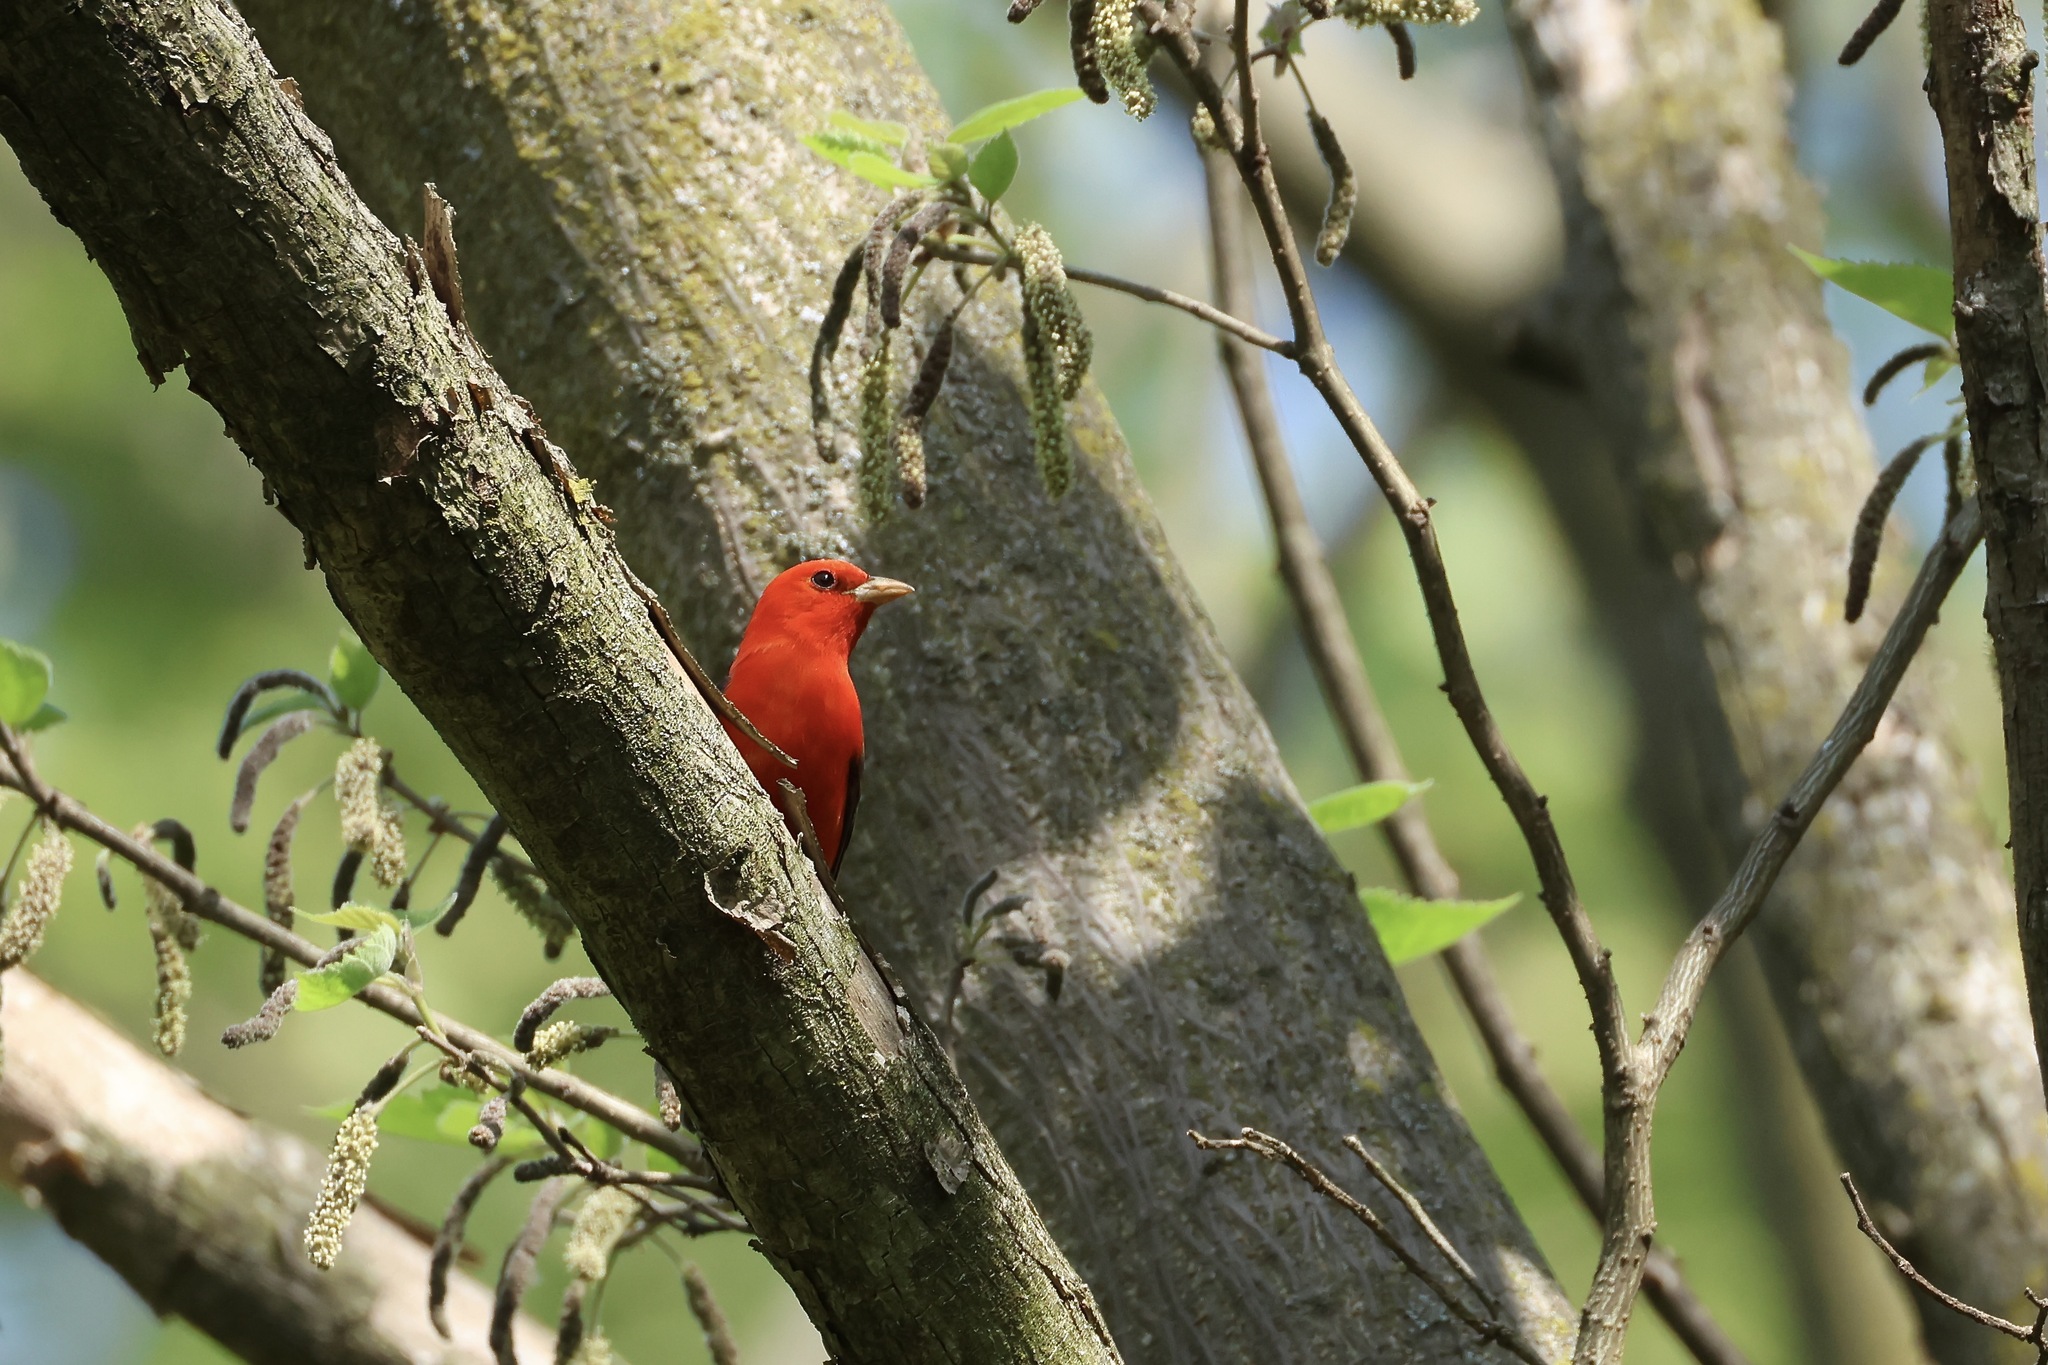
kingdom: Animalia
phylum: Chordata
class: Aves
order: Passeriformes
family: Cardinalidae
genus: Piranga
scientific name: Piranga olivacea
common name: Scarlet tanager
